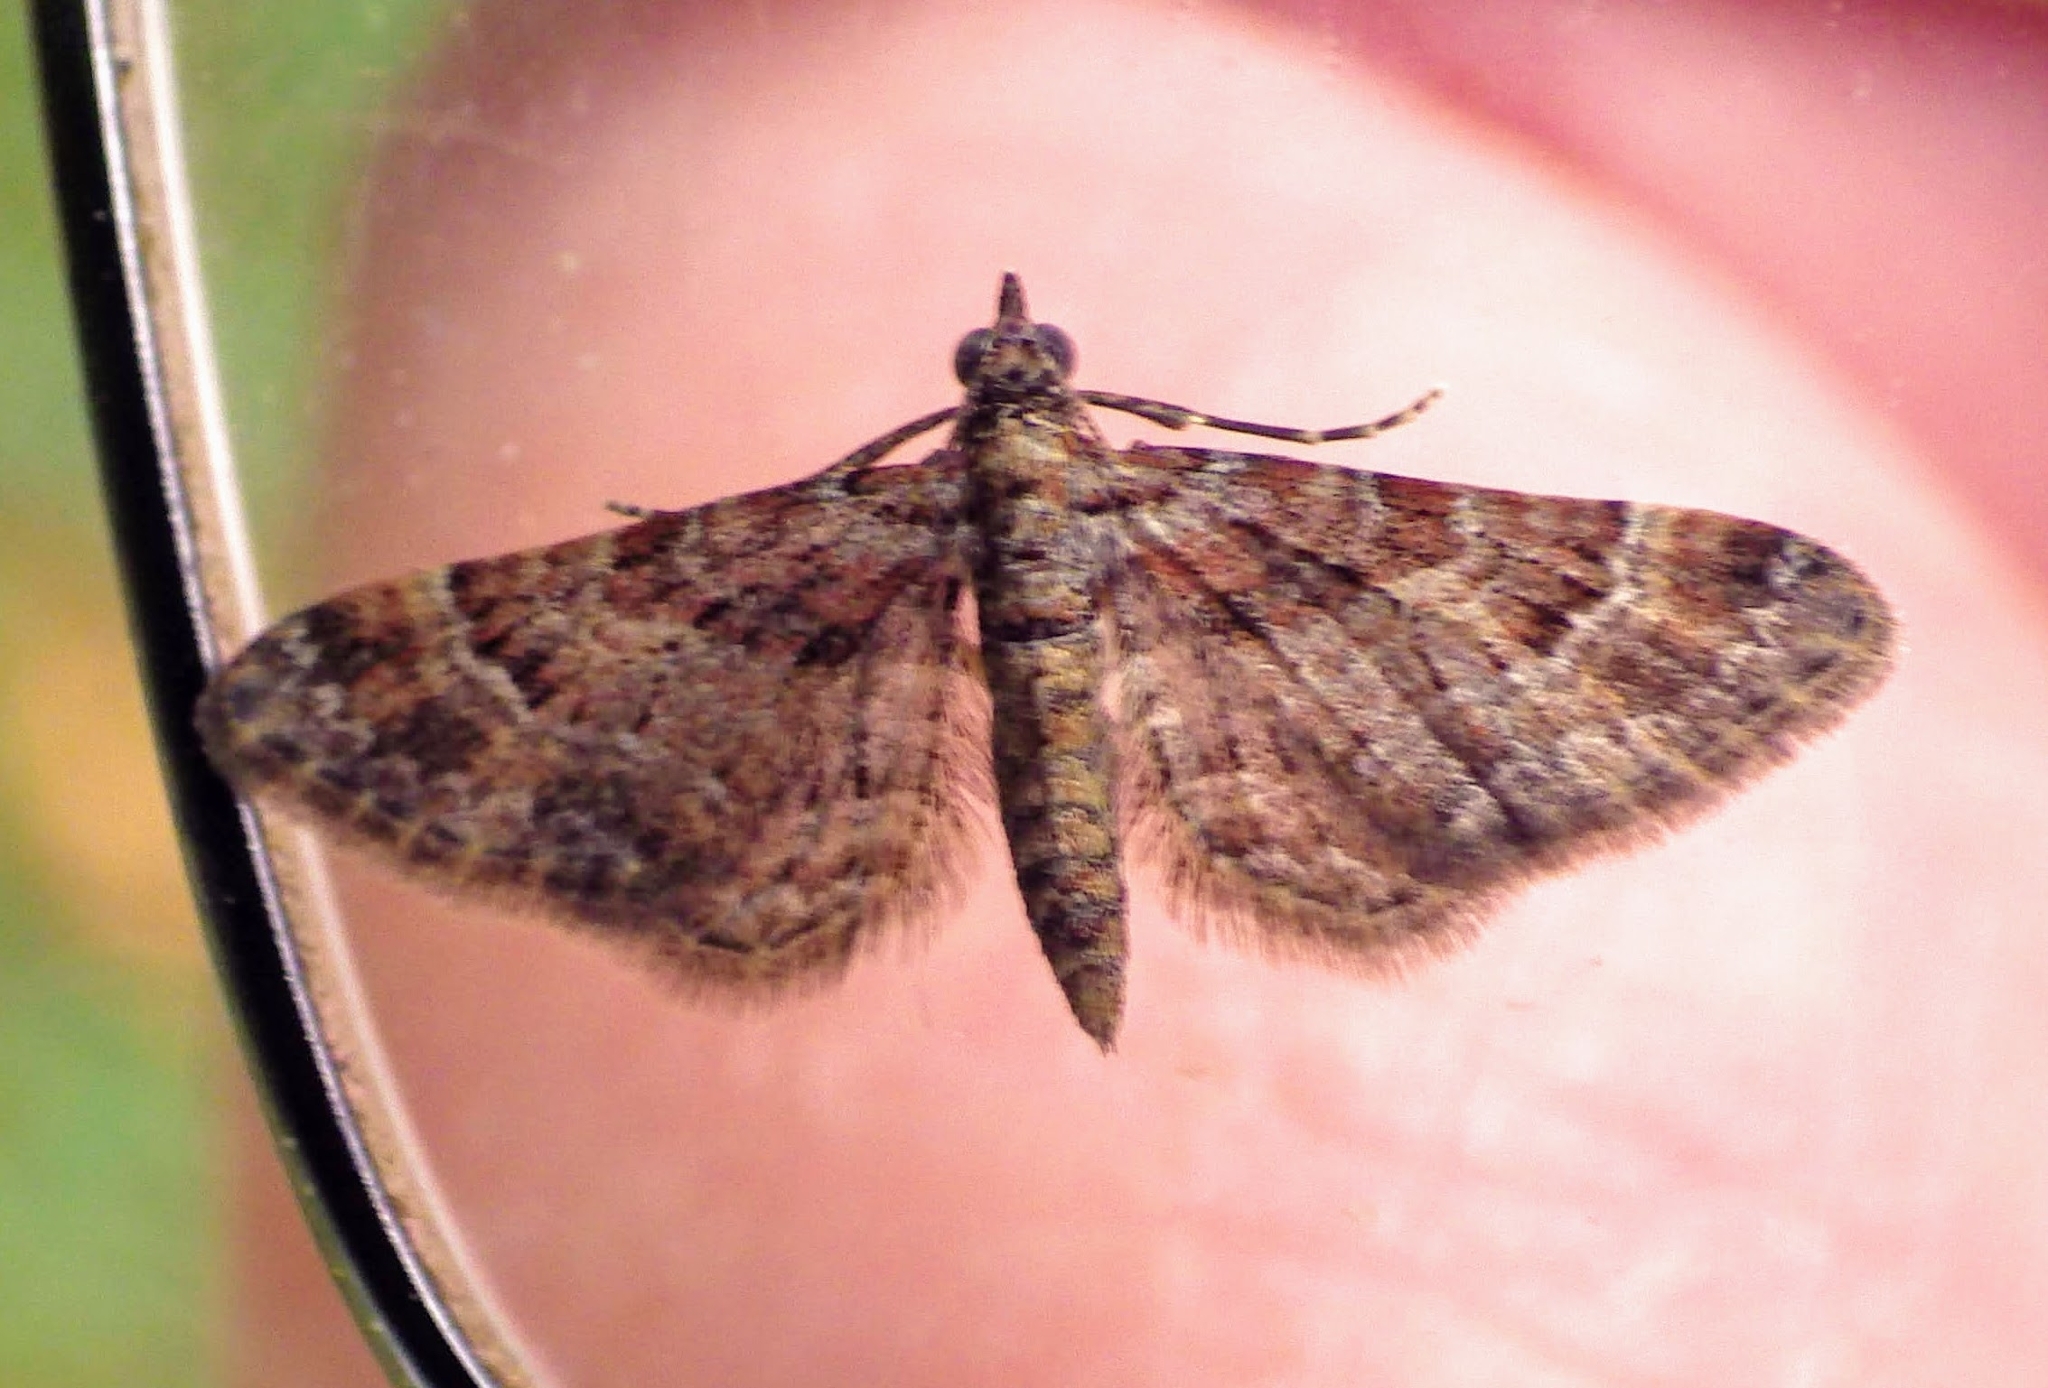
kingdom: Animalia
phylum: Arthropoda
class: Insecta
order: Lepidoptera
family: Geometridae
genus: Gymnoscelis
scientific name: Gymnoscelis rufifasciata
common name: Double-striped pug
